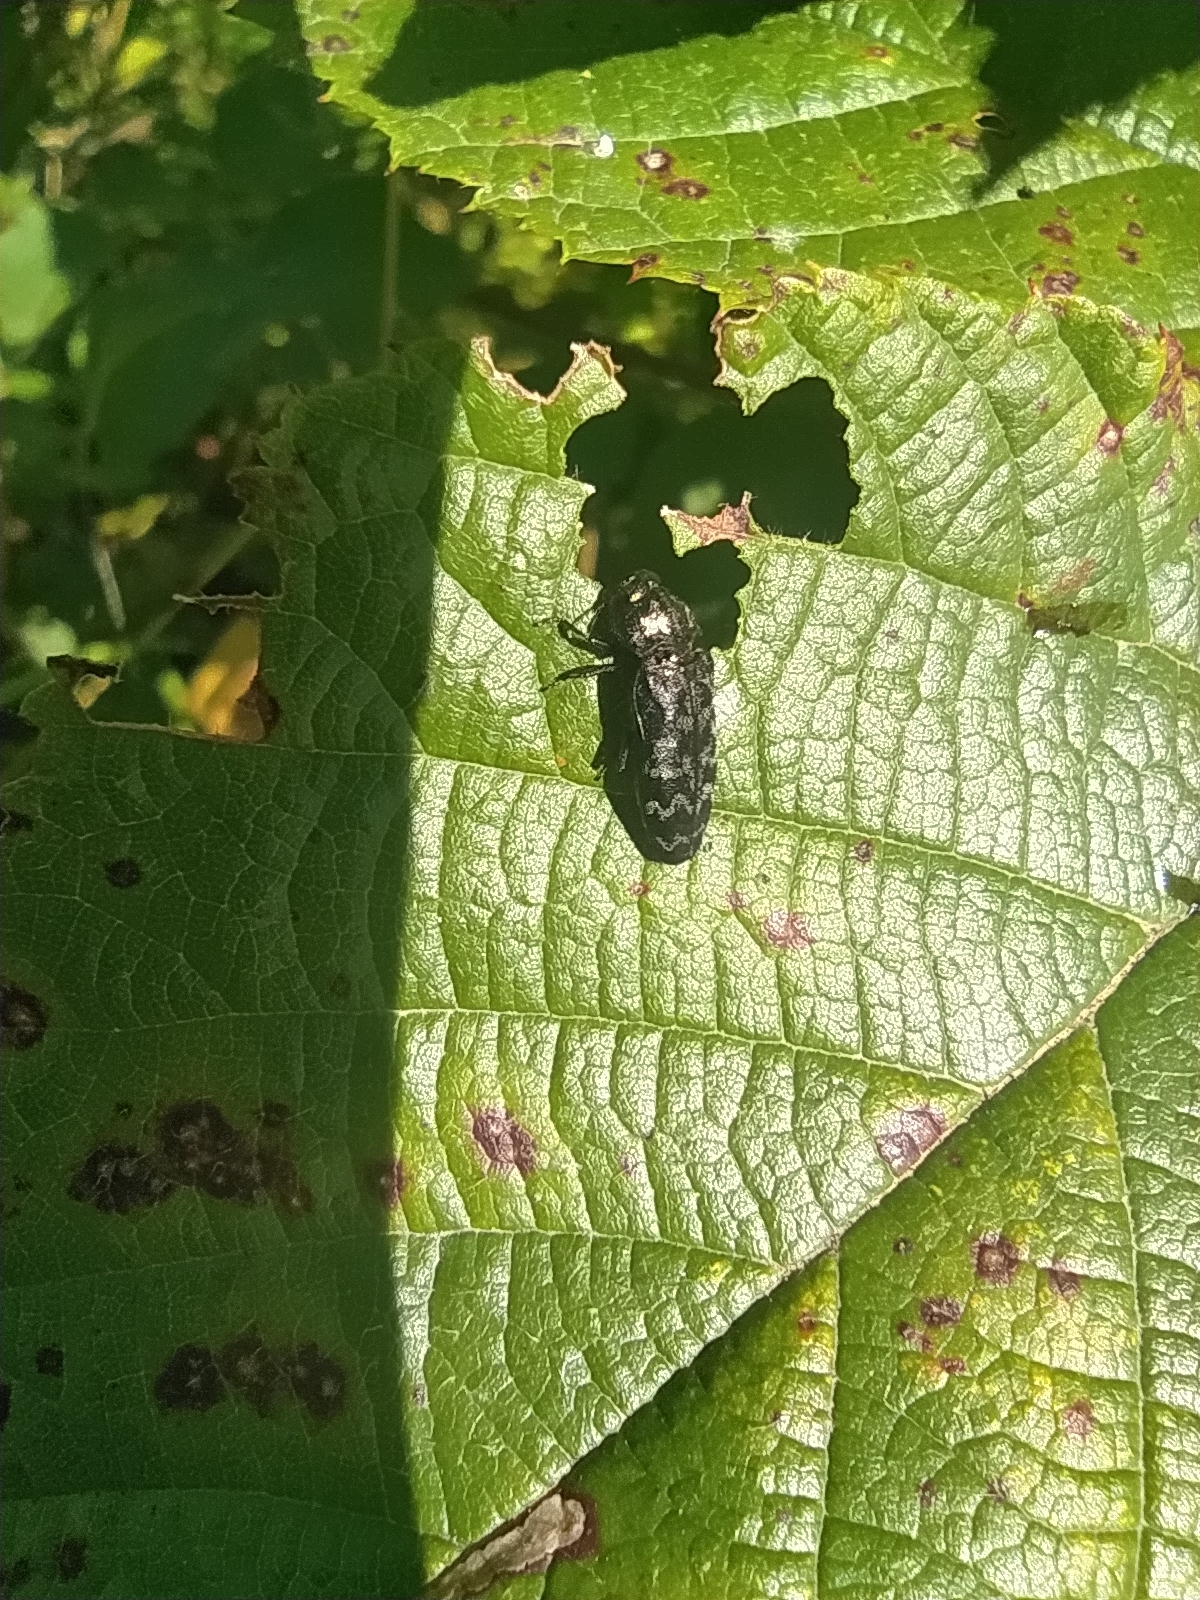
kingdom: Animalia
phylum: Arthropoda
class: Insecta
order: Coleoptera
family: Buprestidae
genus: Coraebus
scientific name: Coraebus rubi
